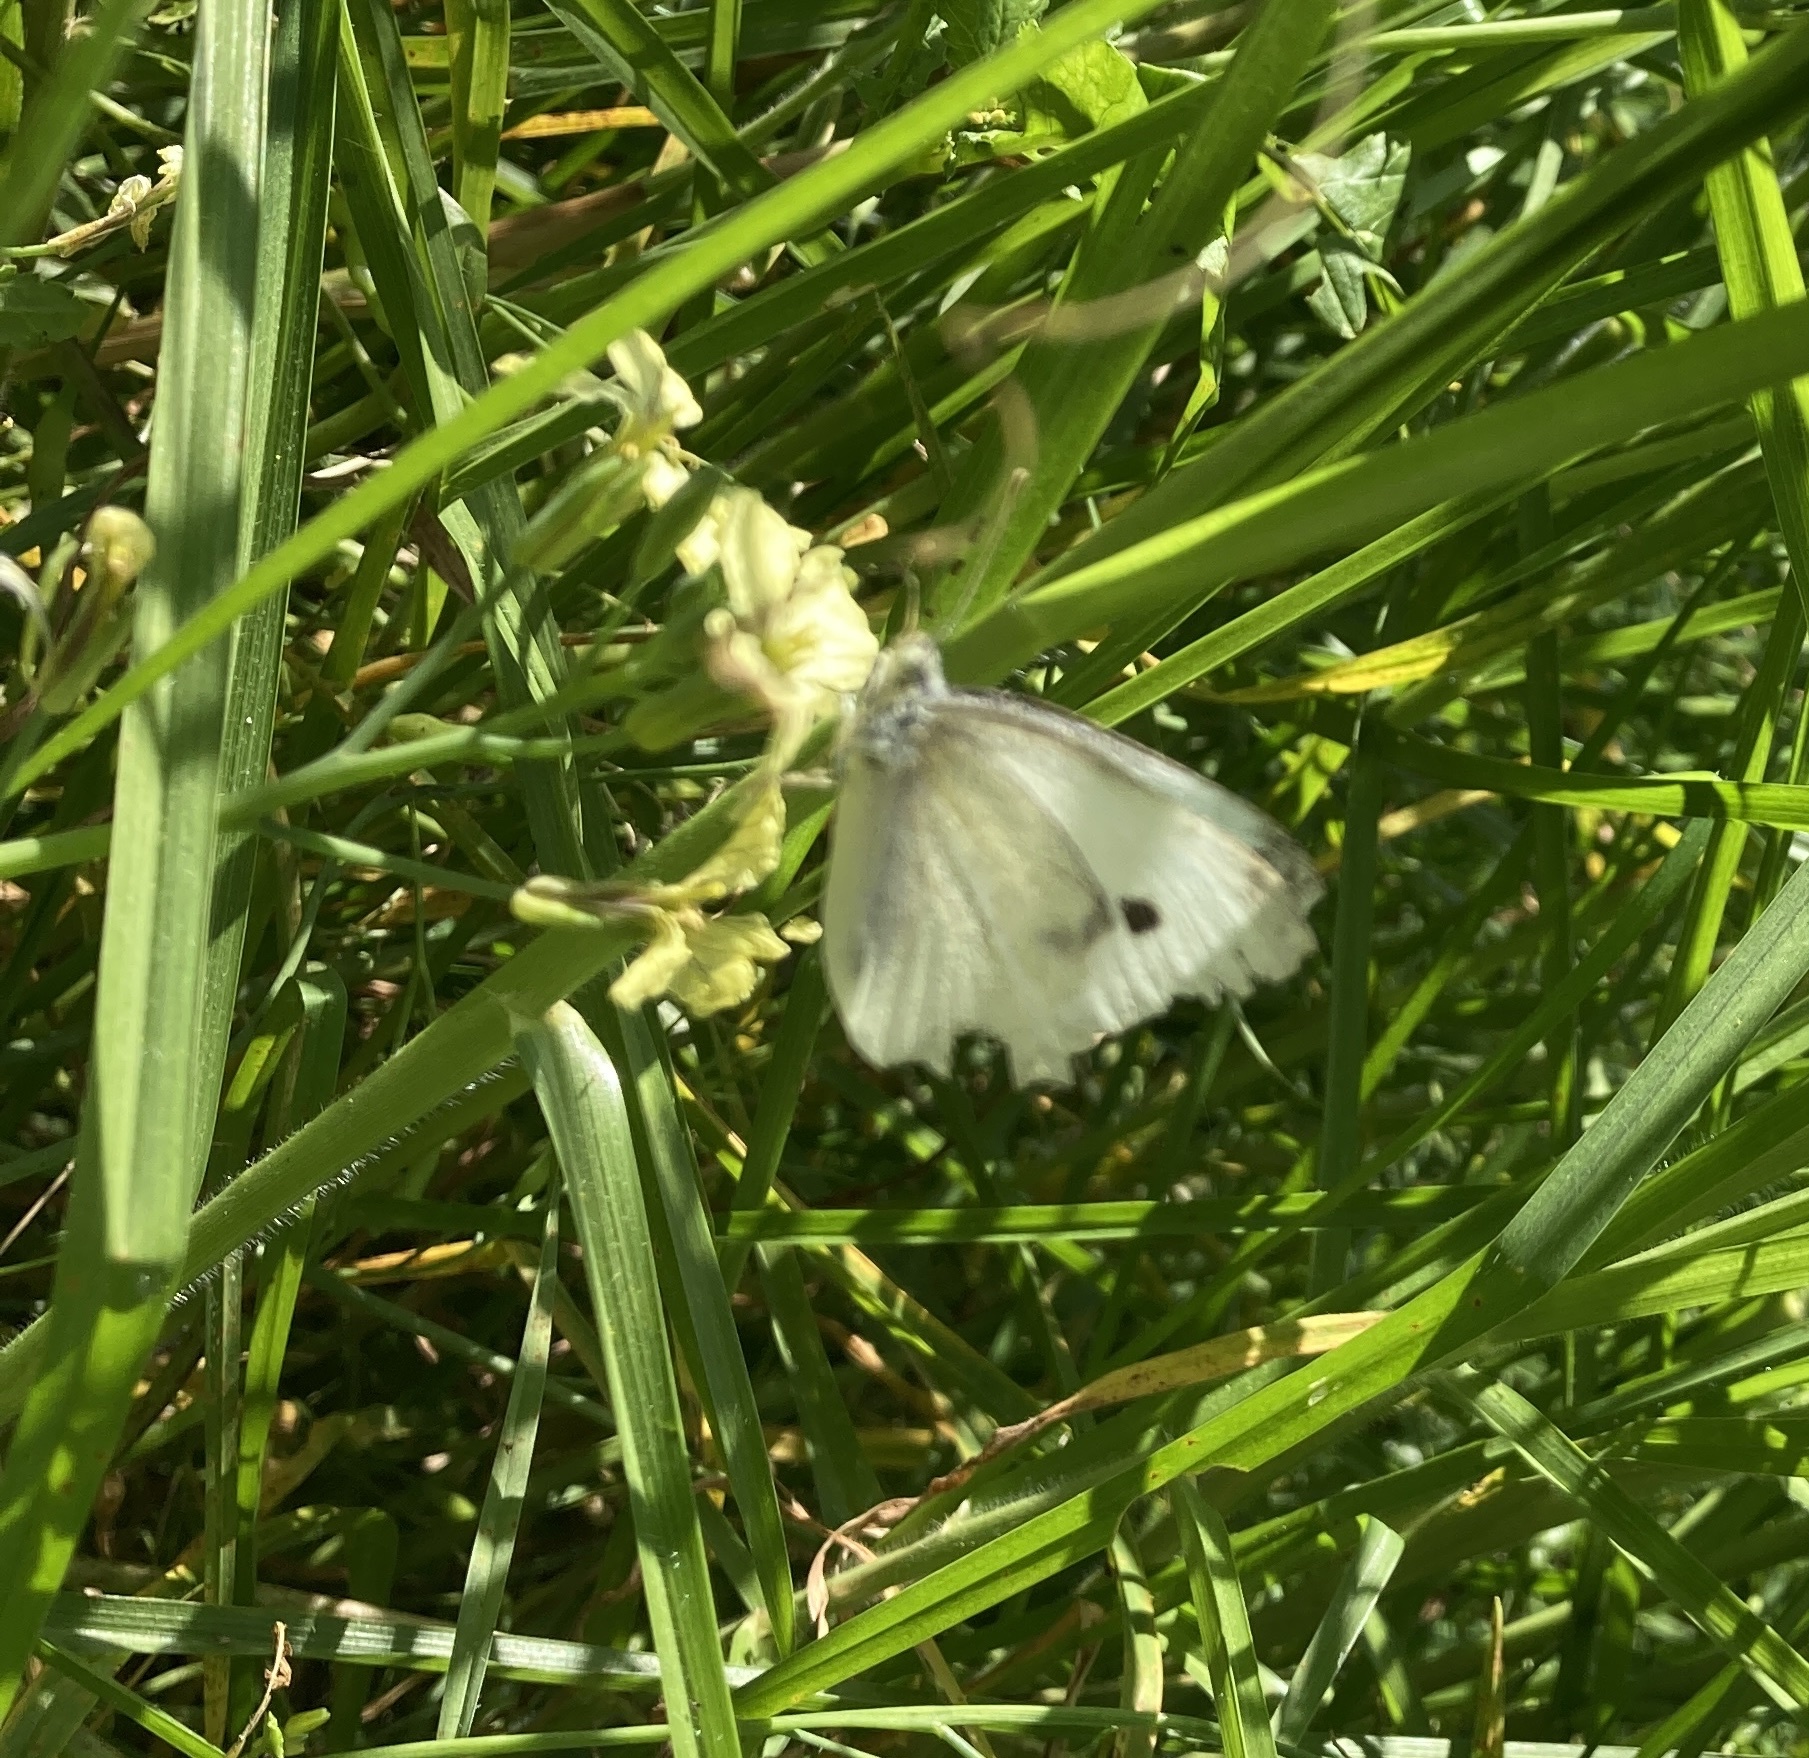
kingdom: Animalia
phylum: Arthropoda
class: Insecta
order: Lepidoptera
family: Pieridae
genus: Pieris
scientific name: Pieris rapae
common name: Small white
